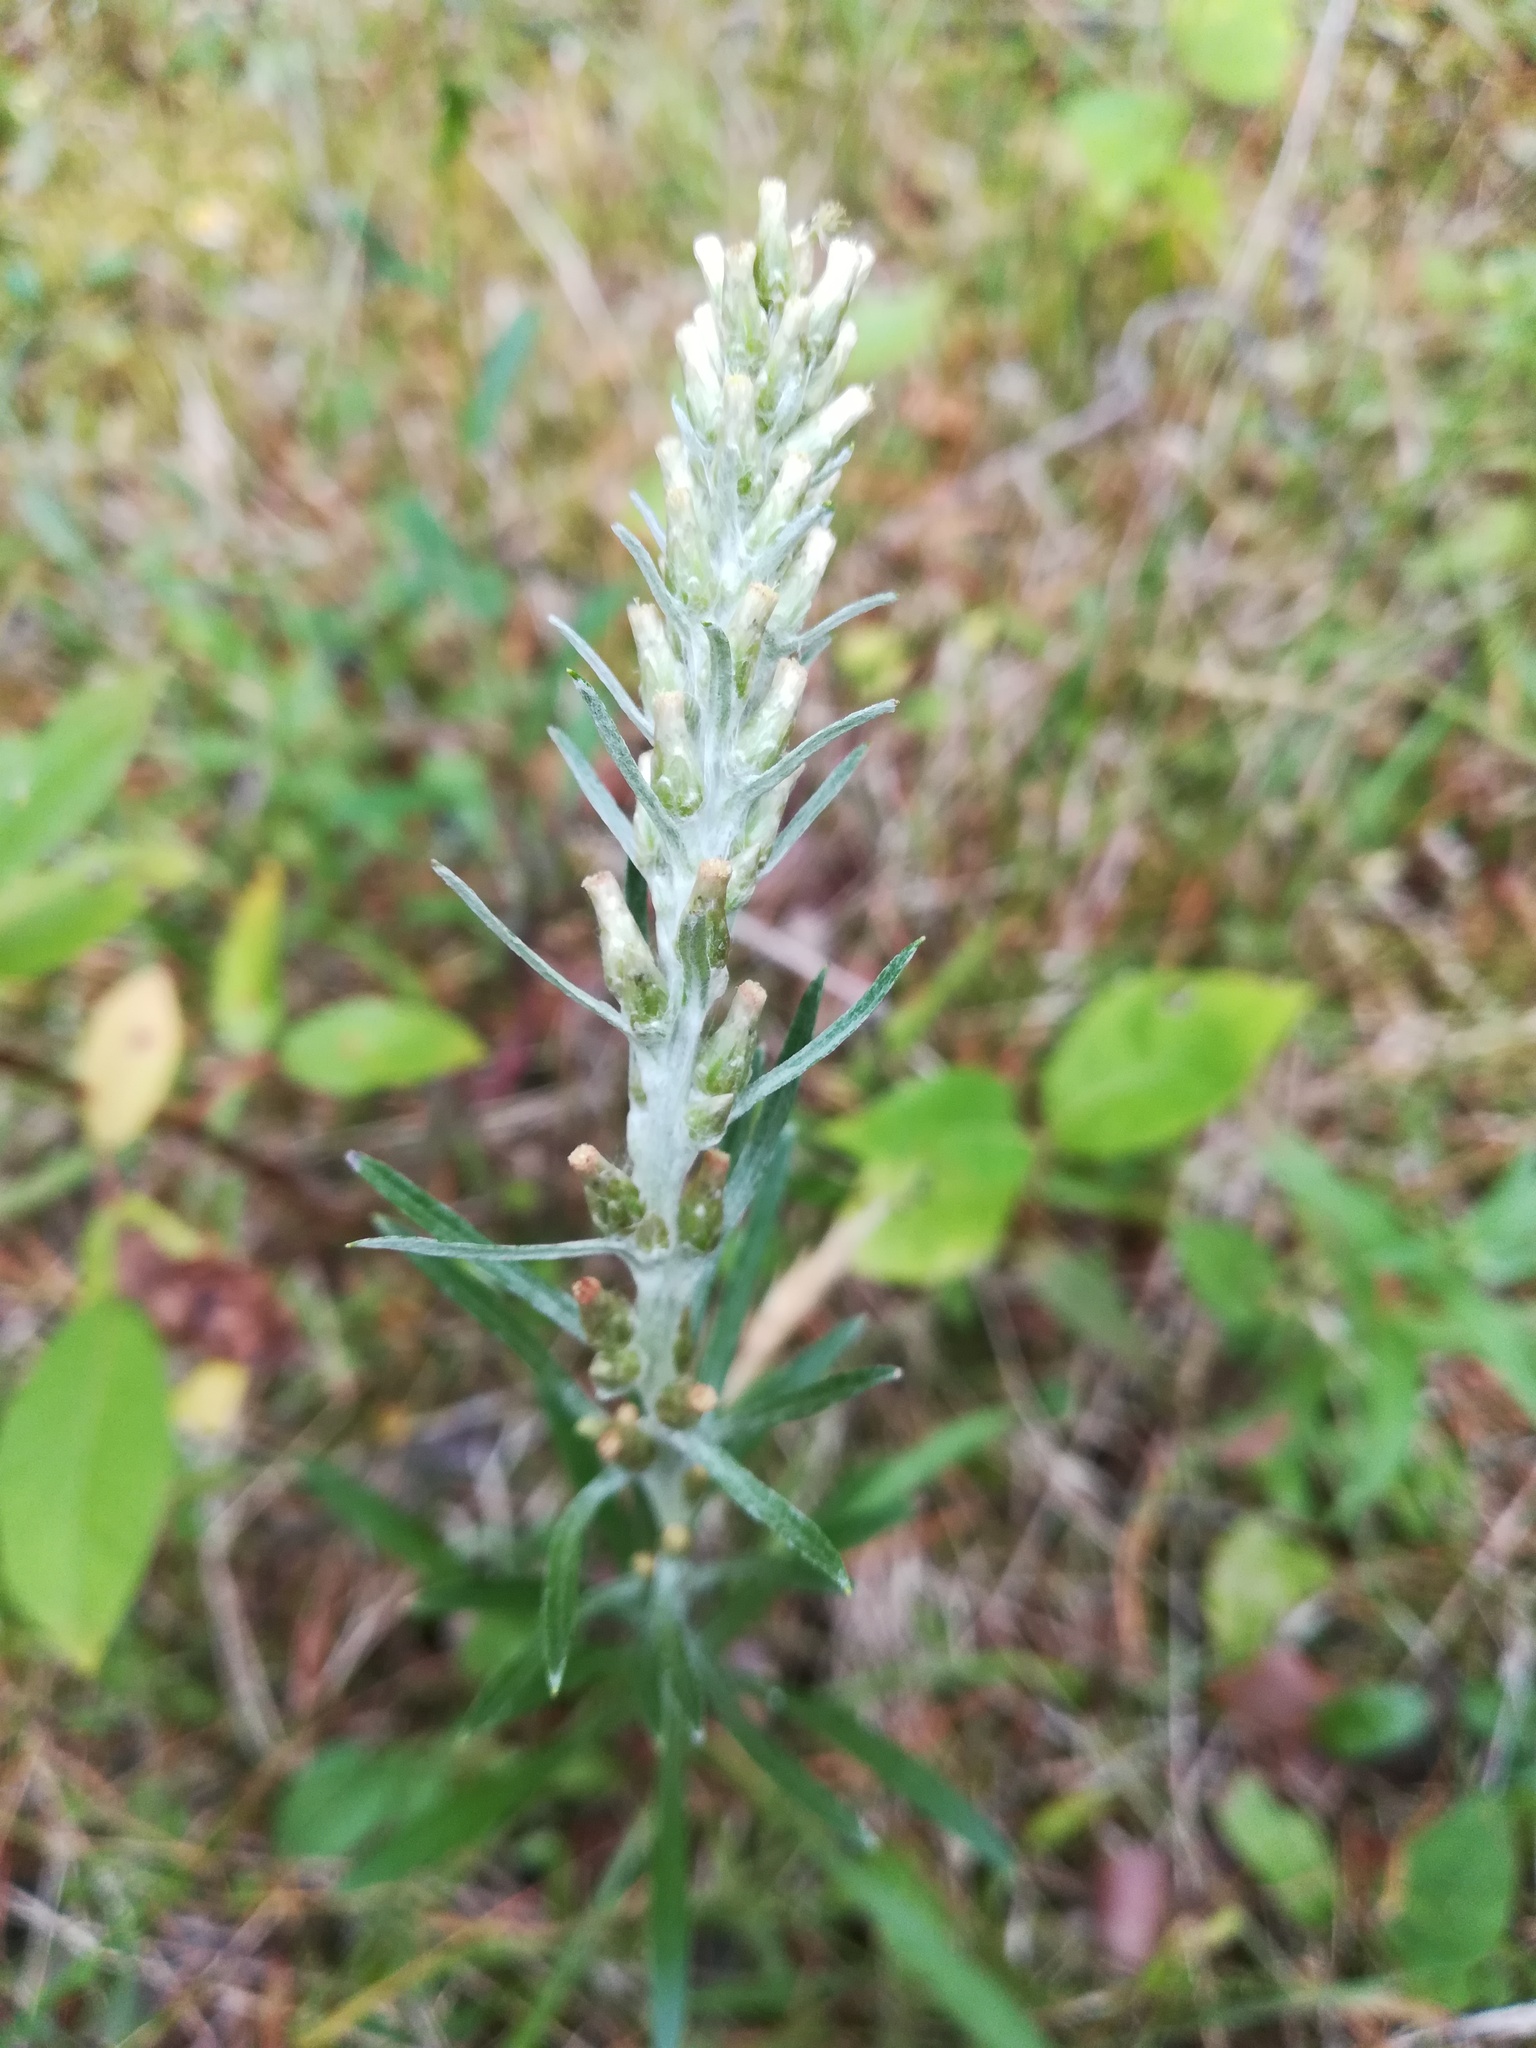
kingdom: Plantae
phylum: Tracheophyta
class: Magnoliopsida
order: Asterales
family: Asteraceae
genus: Omalotheca
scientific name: Omalotheca sylvatica
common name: Heath cudweed
